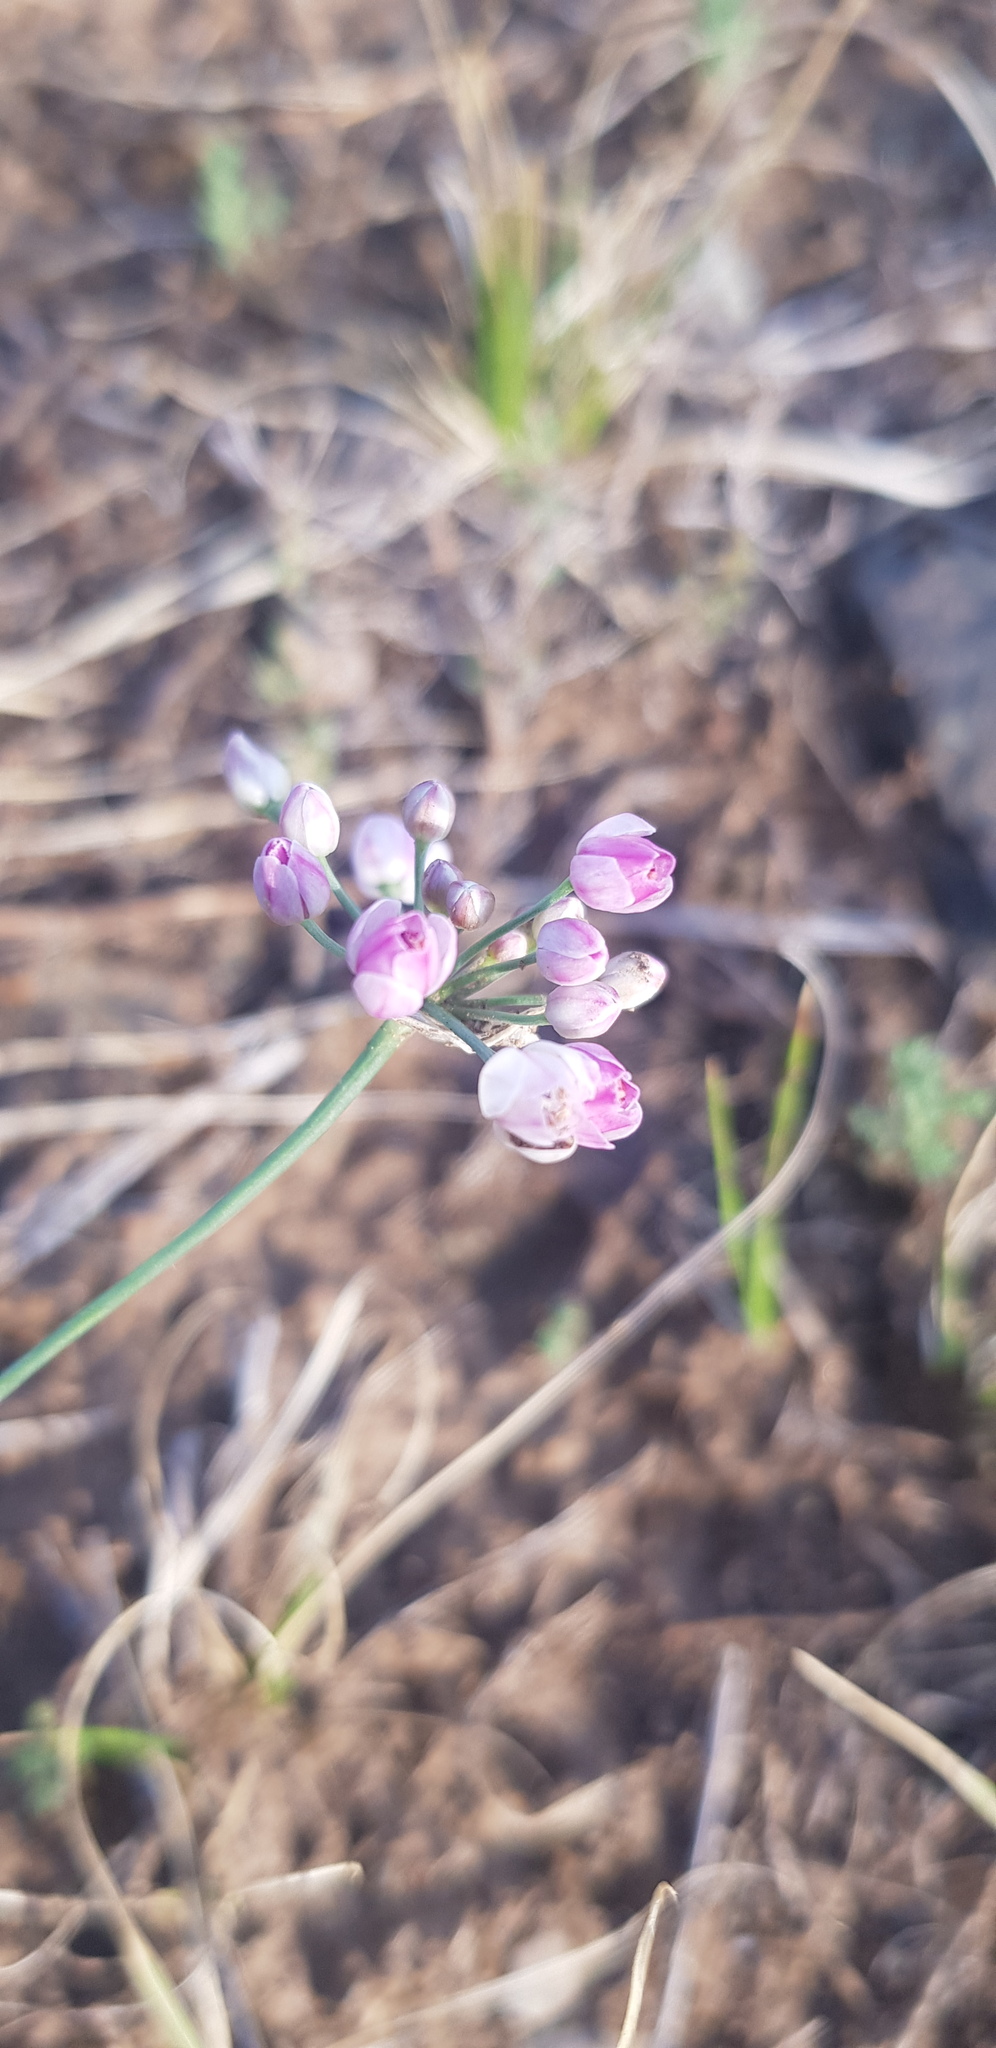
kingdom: Plantae
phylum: Tracheophyta
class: Liliopsida
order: Asparagales
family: Amaryllidaceae
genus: Allium
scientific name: Allium anisopodium
